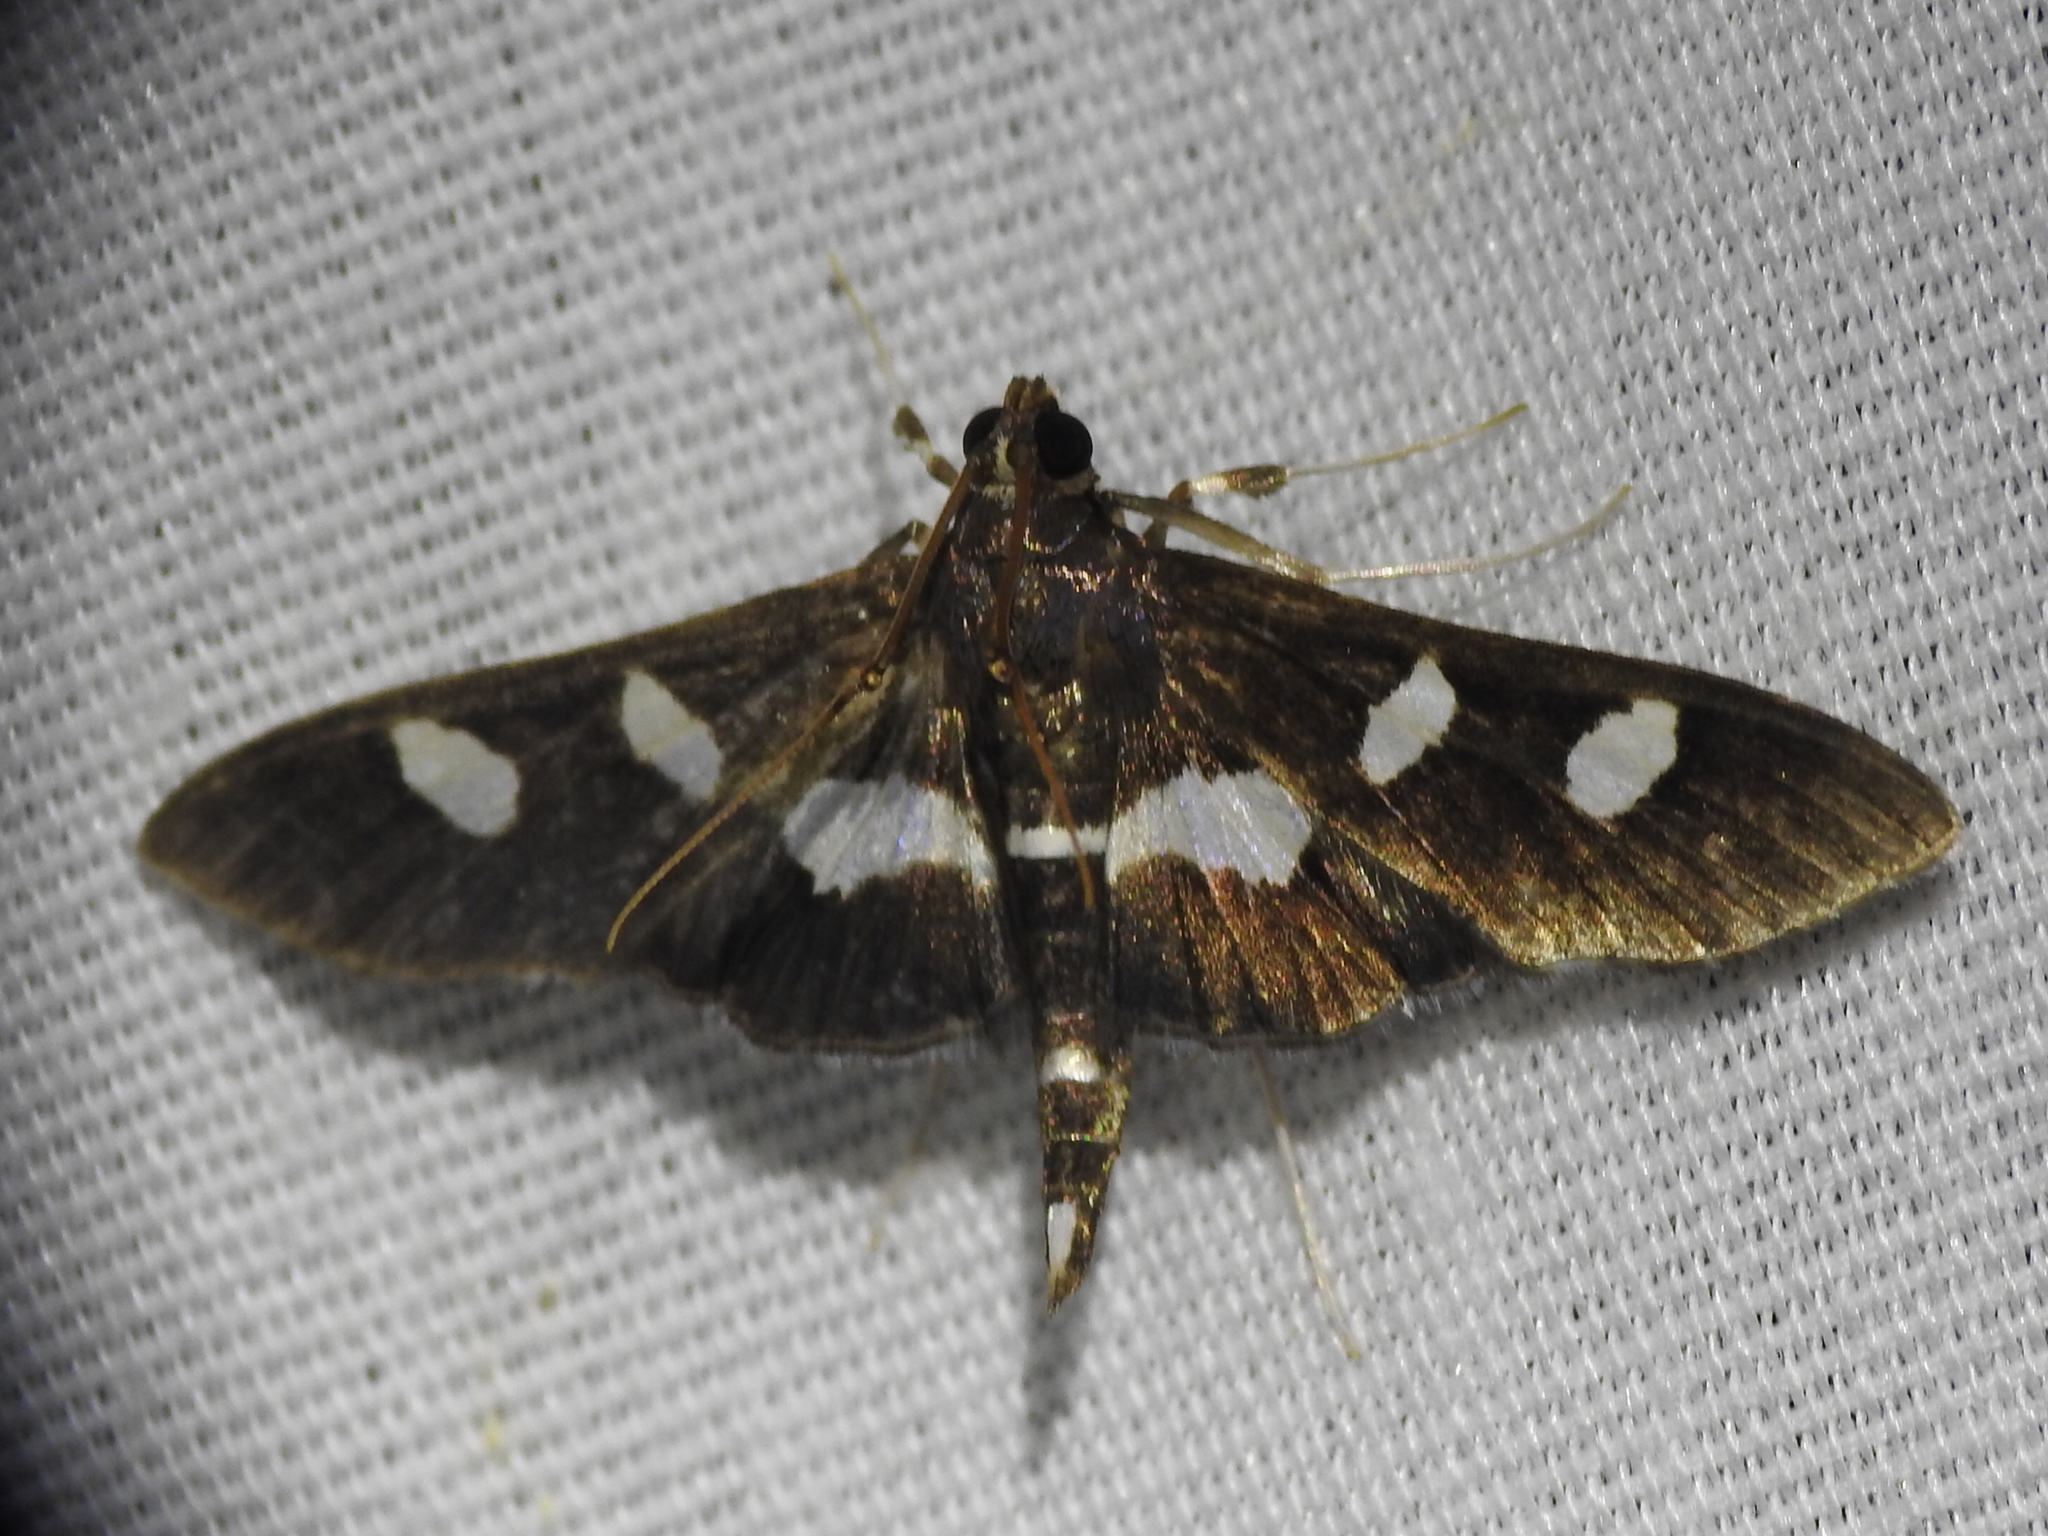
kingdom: Animalia
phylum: Arthropoda
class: Insecta
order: Lepidoptera
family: Crambidae
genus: Desmia
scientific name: Desmia
